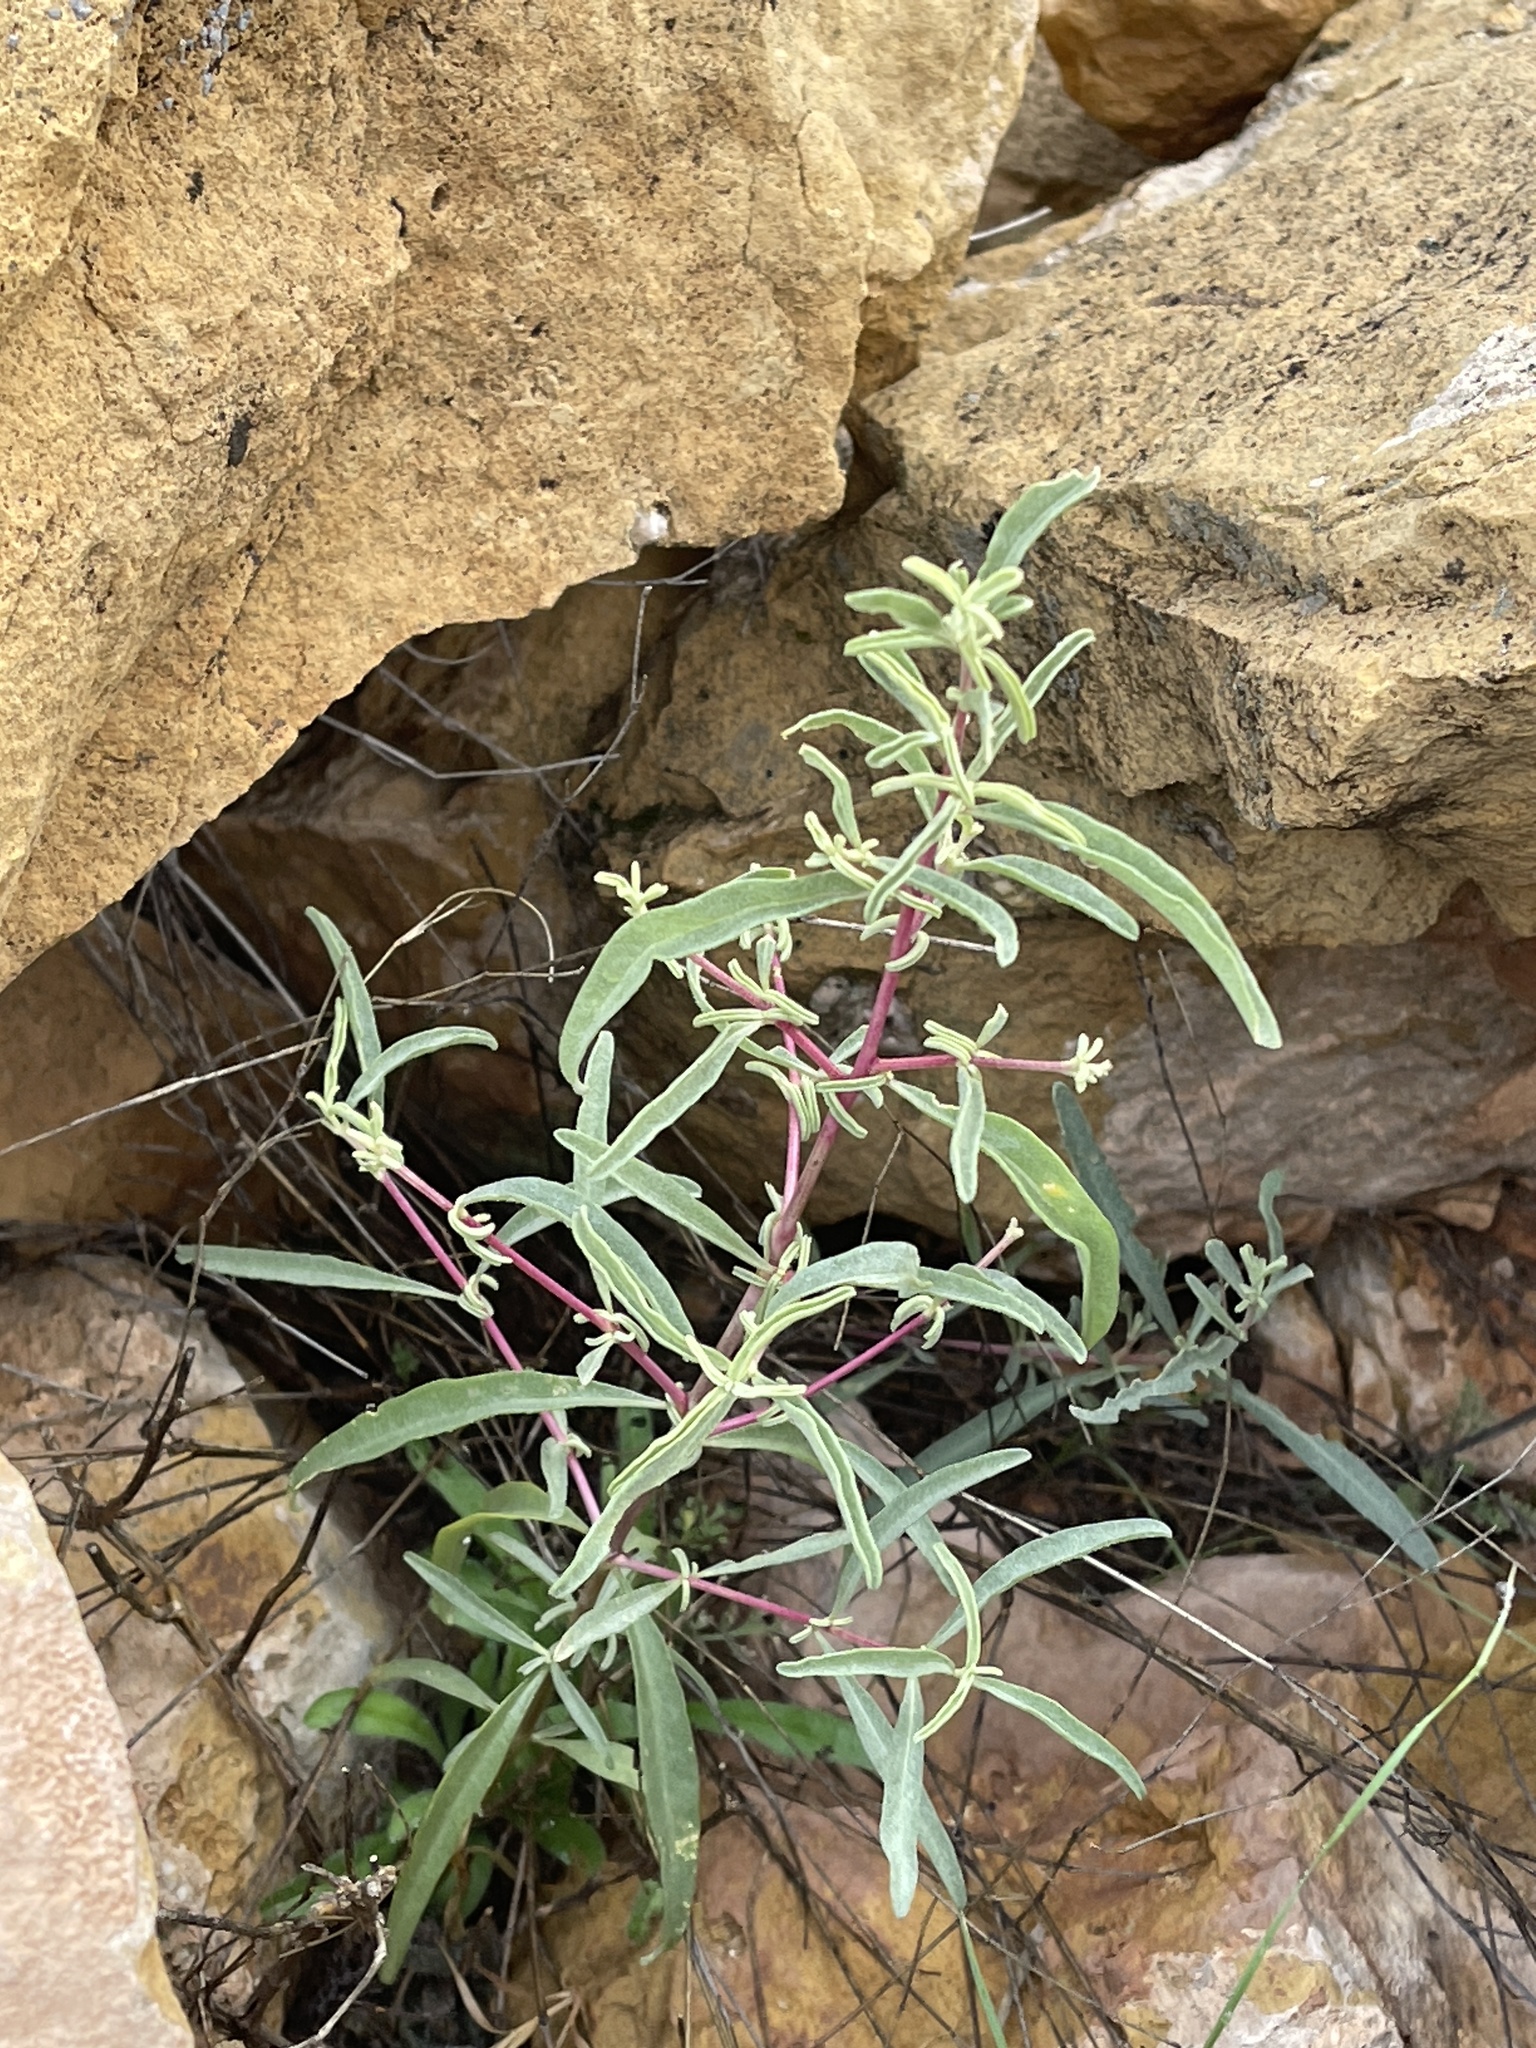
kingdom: Plantae
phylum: Tracheophyta
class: Magnoliopsida
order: Caryophyllales
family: Nyctaginaceae
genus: Mirabilis
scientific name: Mirabilis linearis
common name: Linear-leaved four-o'clock
